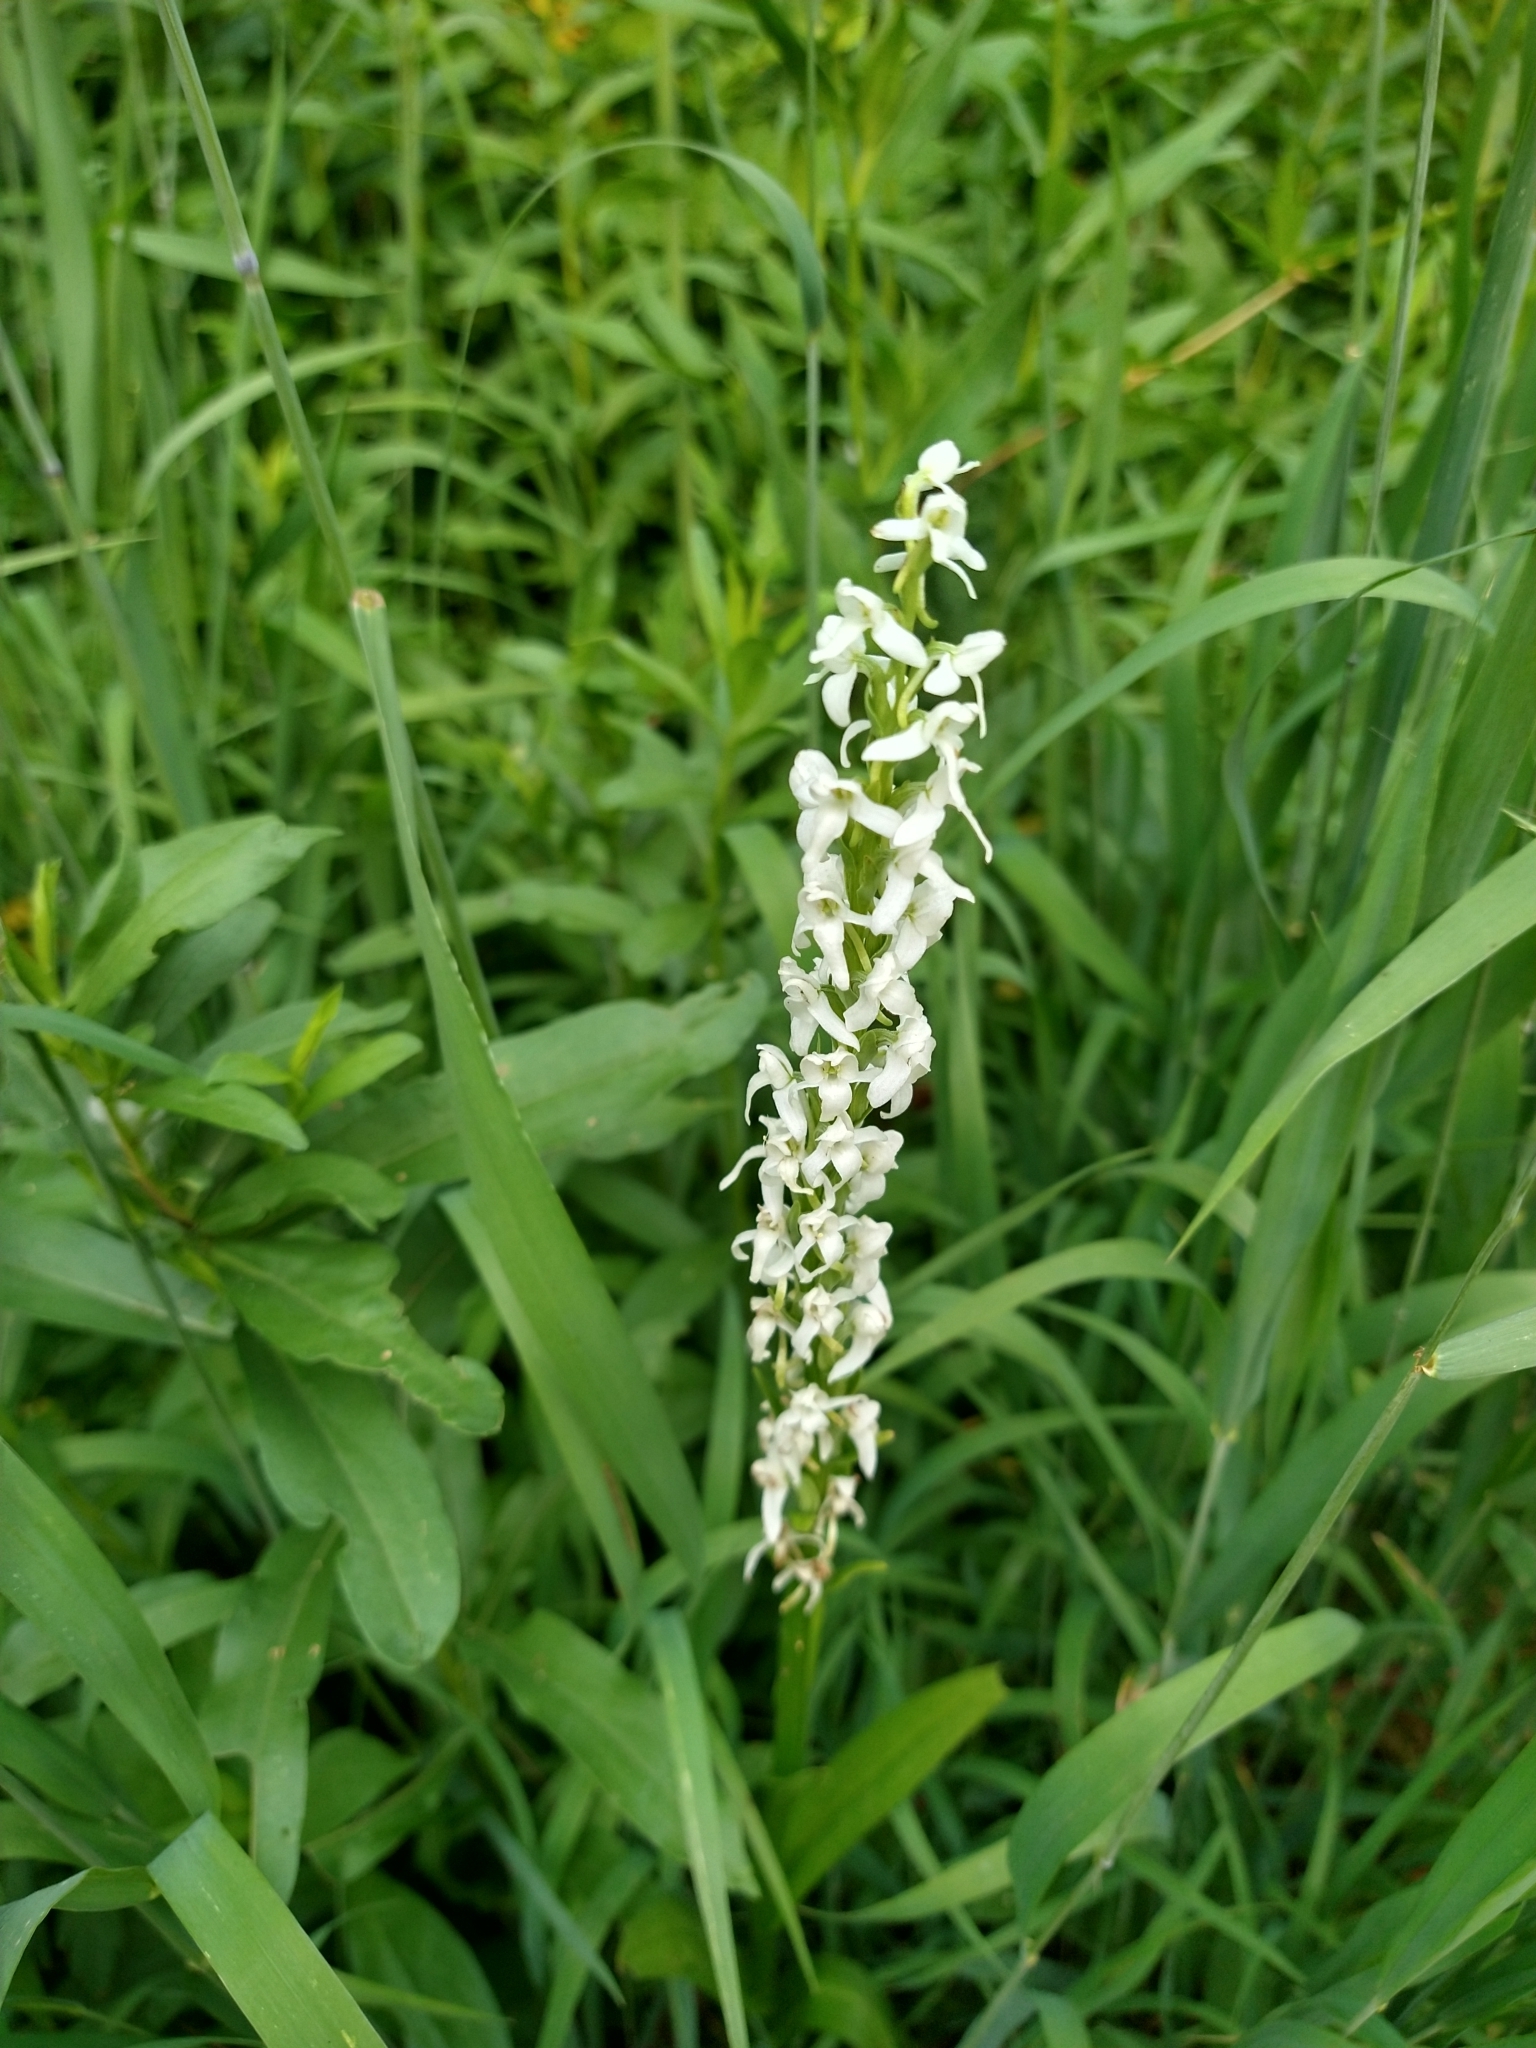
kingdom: Plantae
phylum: Tracheophyta
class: Liliopsida
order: Asparagales
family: Orchidaceae
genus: Platanthera
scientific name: Platanthera dilatata
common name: Bog candles
